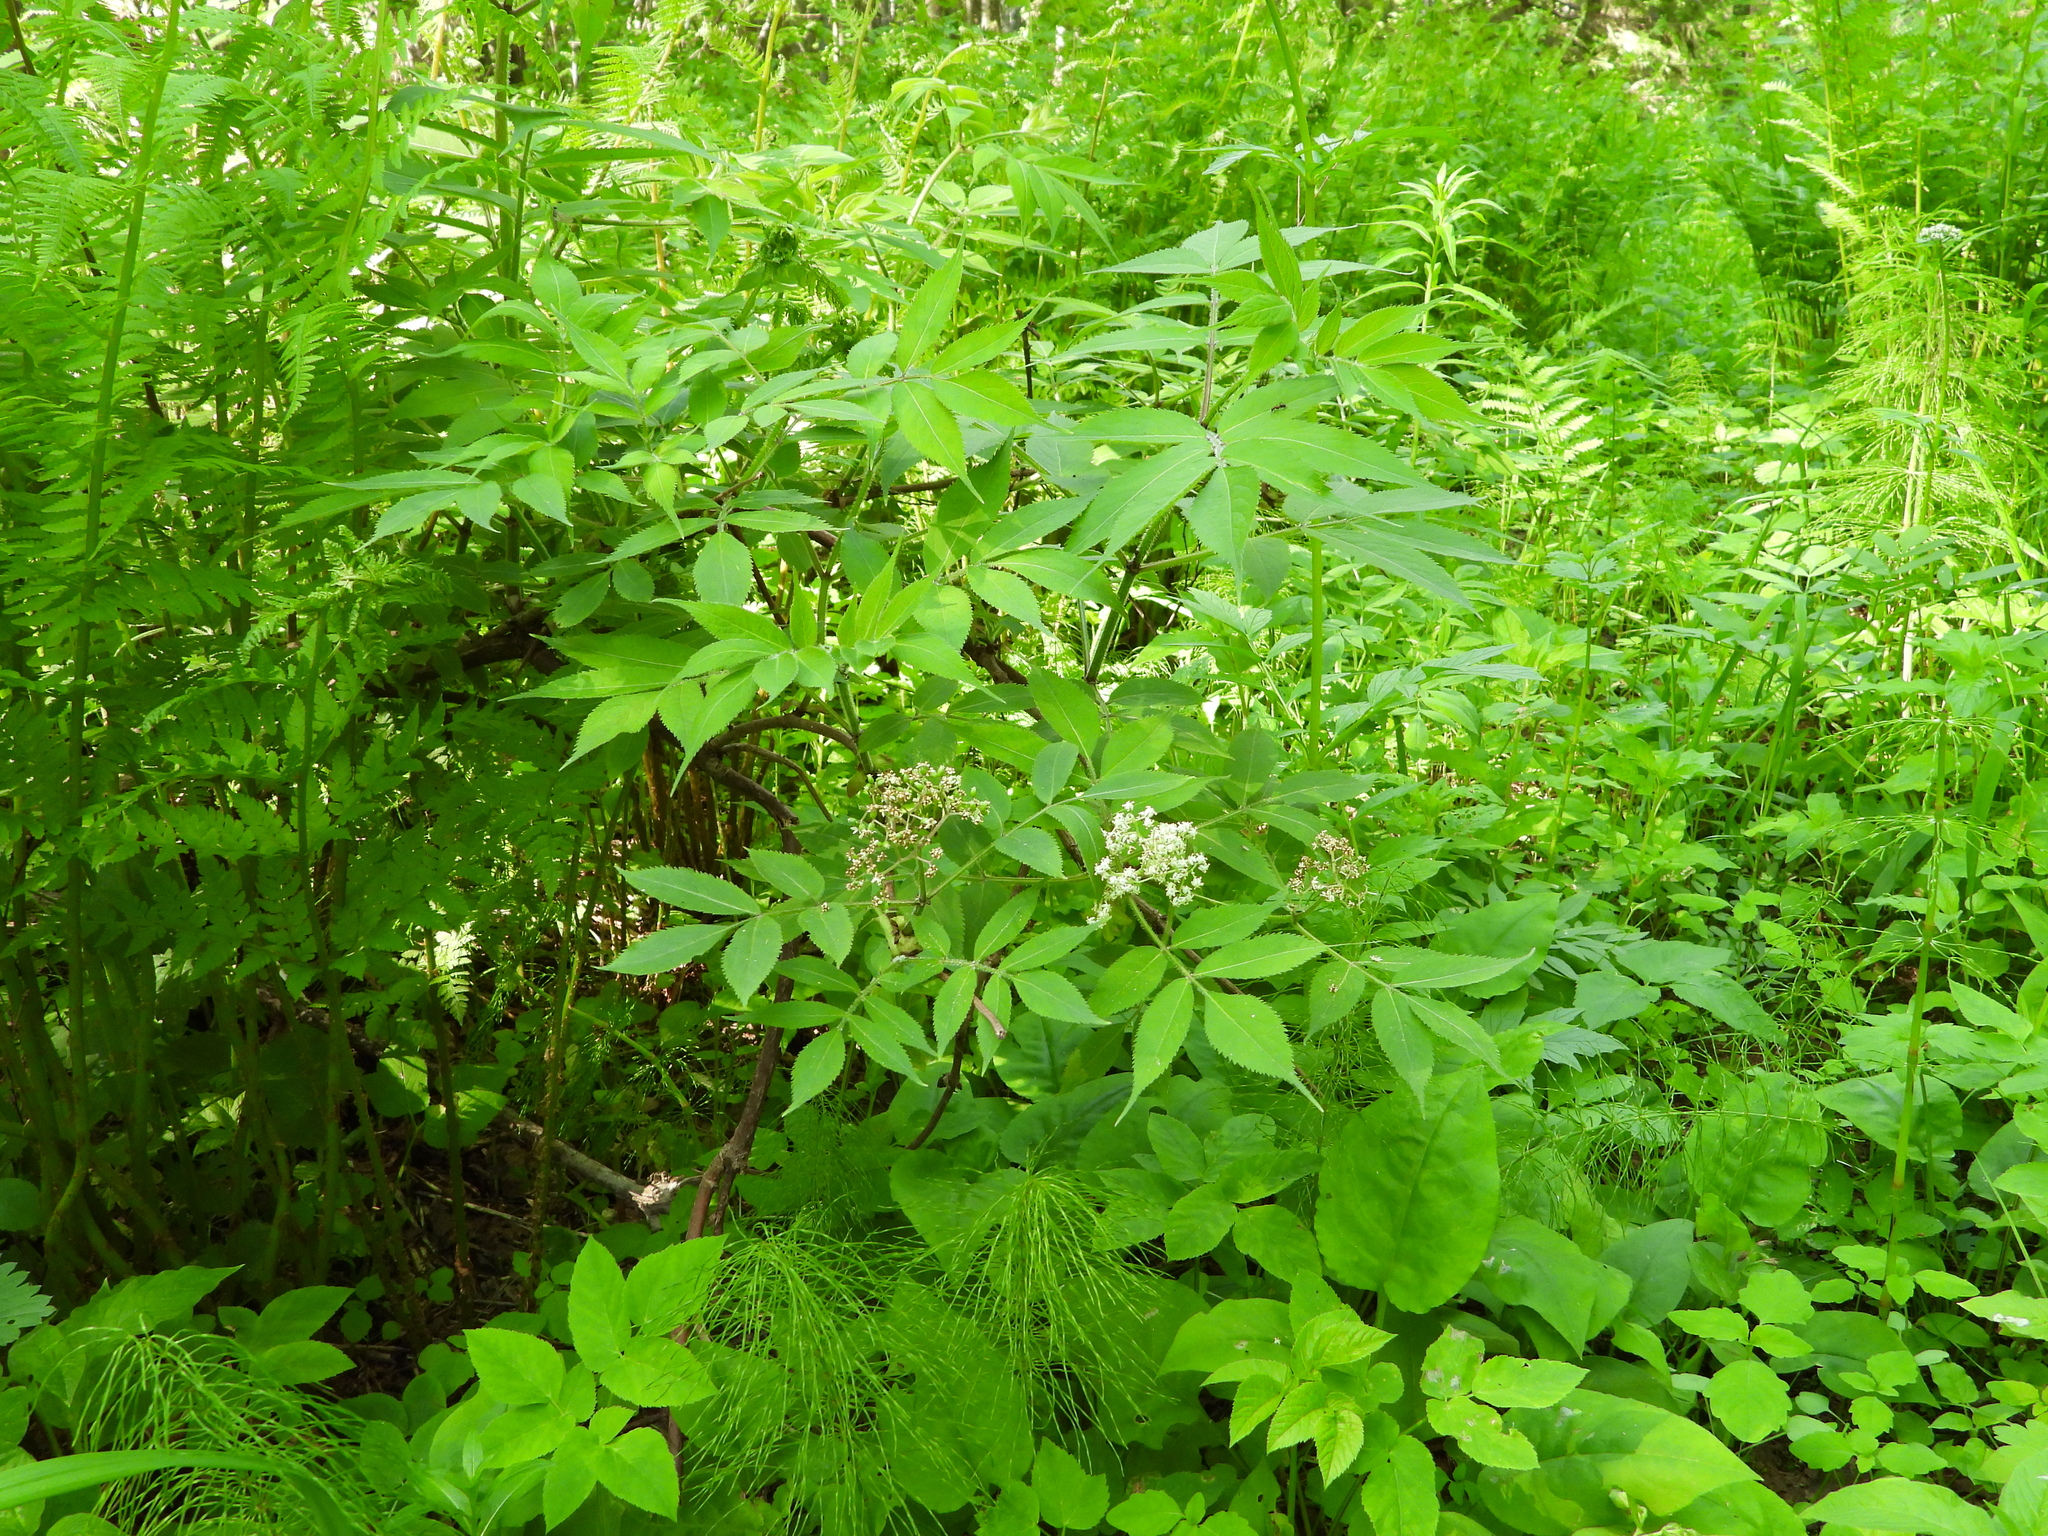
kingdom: Plantae
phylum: Tracheophyta
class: Magnoliopsida
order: Dipsacales
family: Viburnaceae
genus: Sambucus
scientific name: Sambucus racemosa
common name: Red-berried elder
